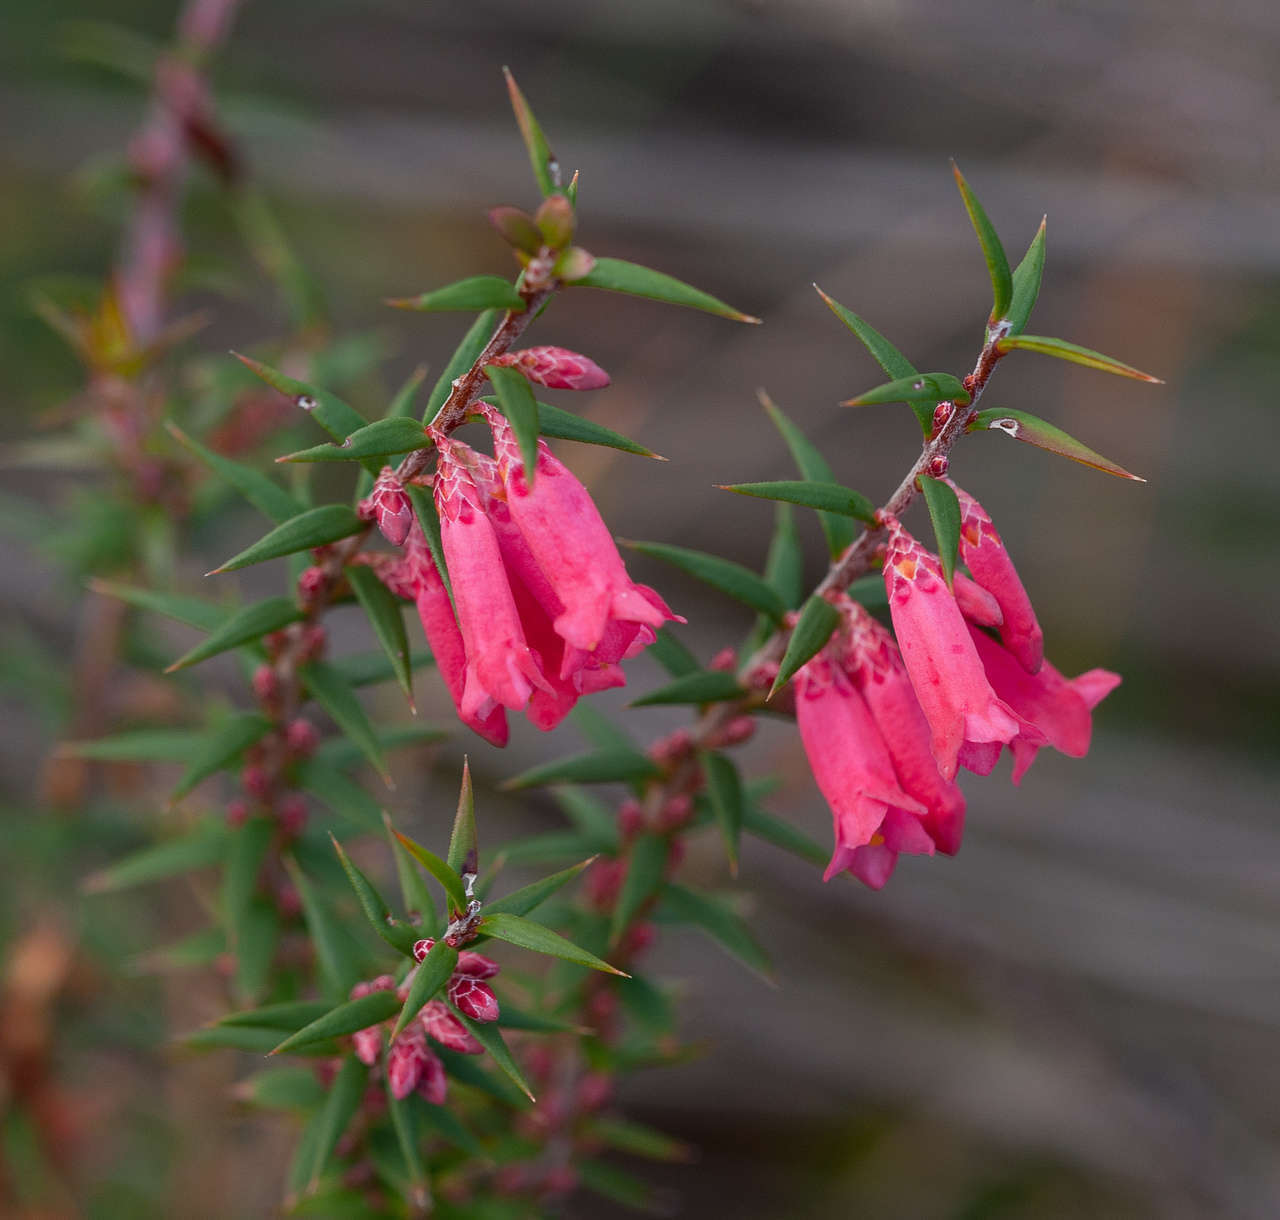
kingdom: Plantae
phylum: Tracheophyta
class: Magnoliopsida
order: Ericales
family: Ericaceae
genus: Epacris
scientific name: Epacris impressa
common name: Common-heath
